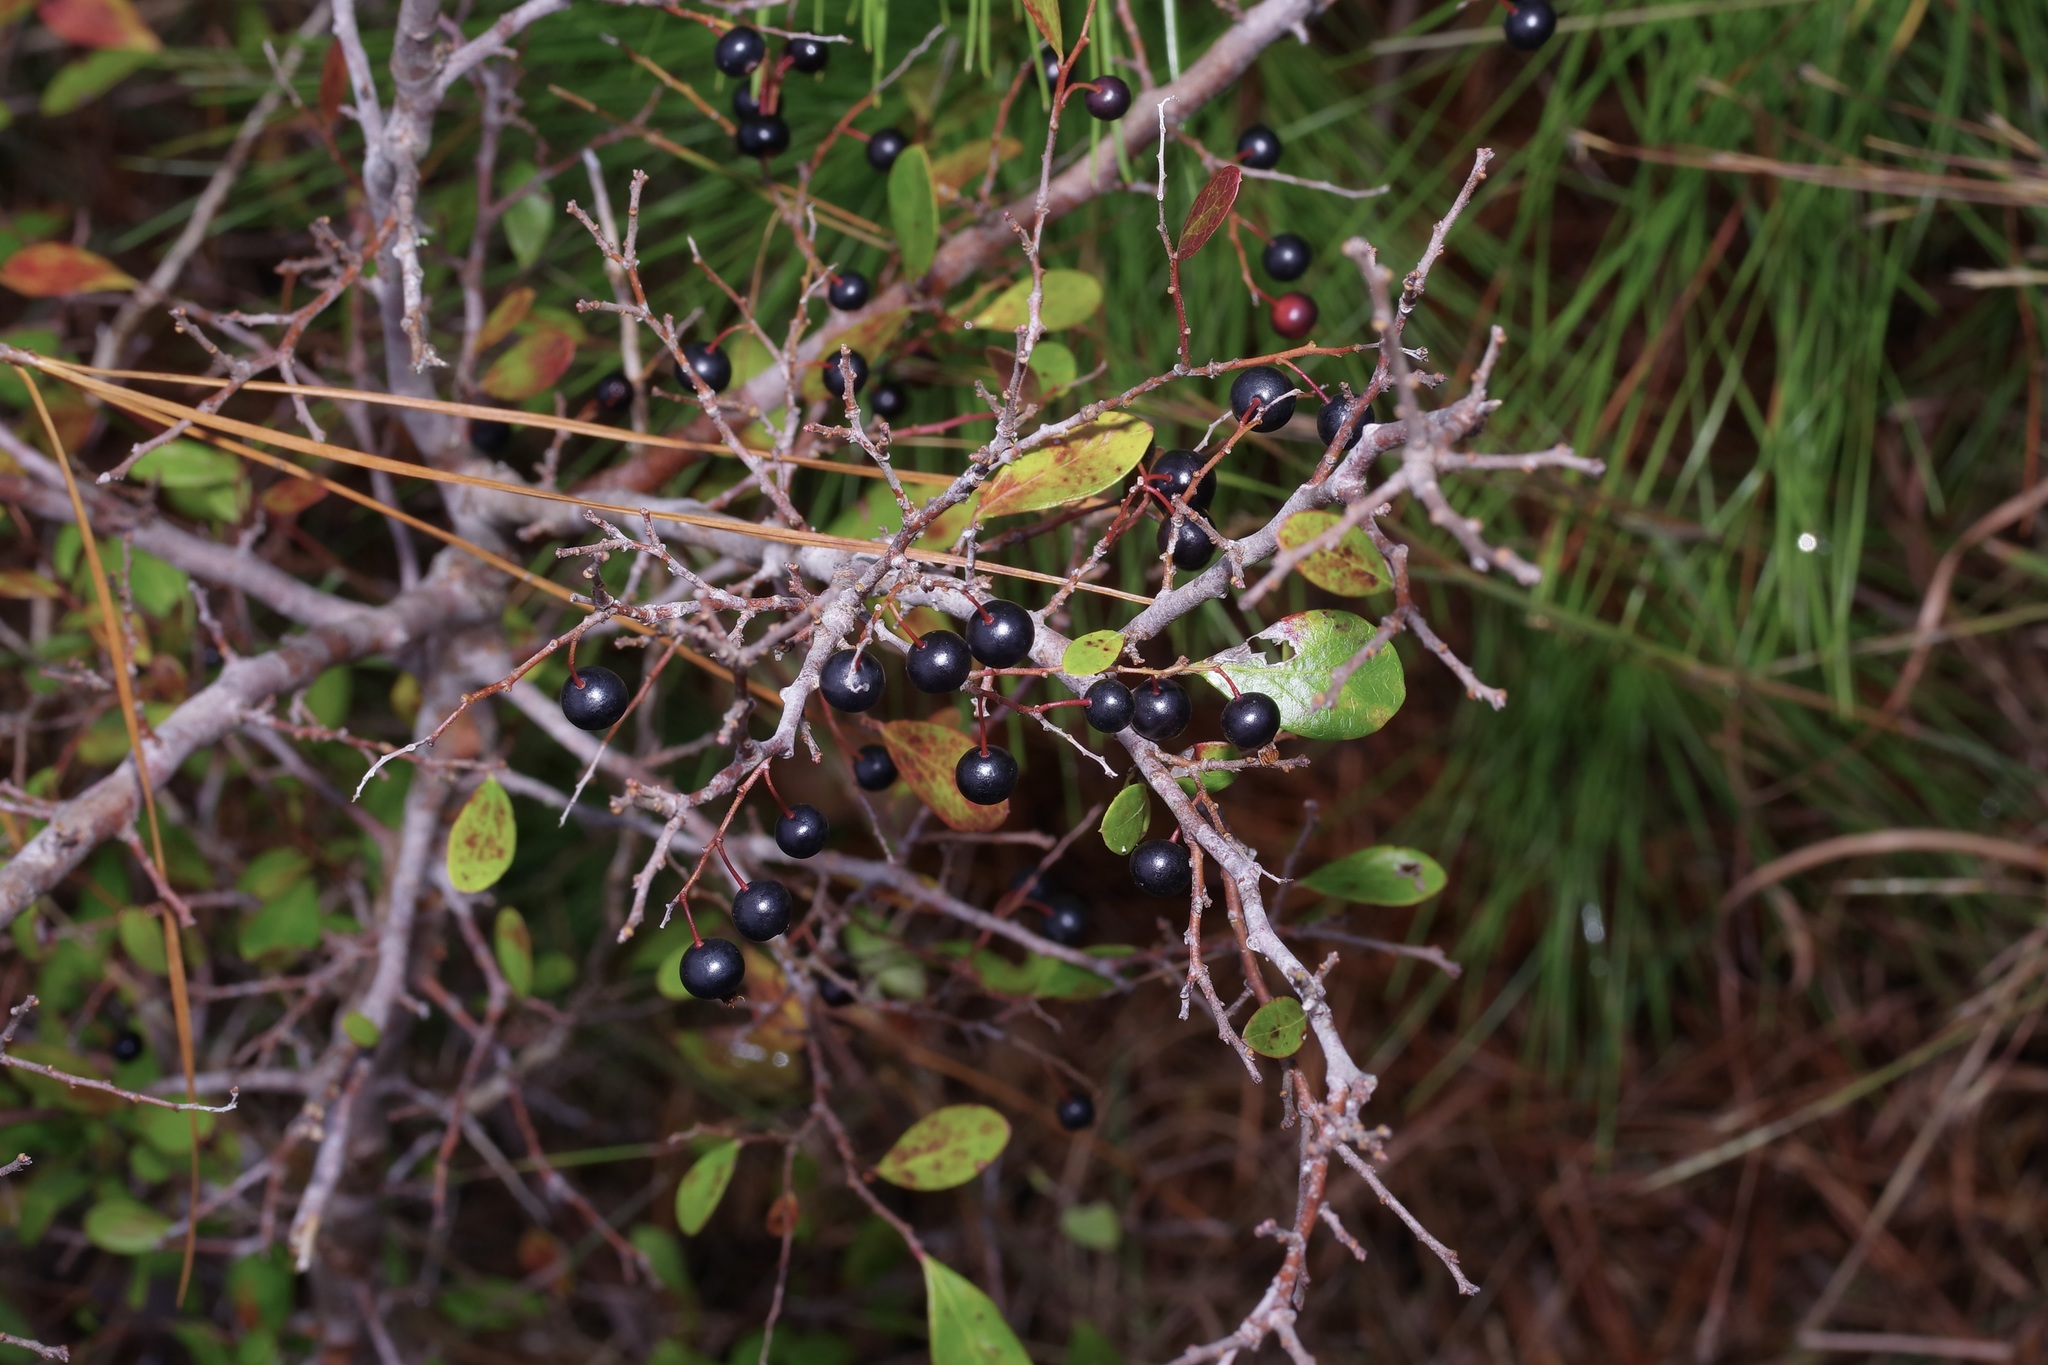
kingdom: Plantae
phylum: Tracheophyta
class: Magnoliopsida
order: Ericales
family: Ericaceae
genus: Vaccinium
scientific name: Vaccinium arboreum
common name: Farkleberry
